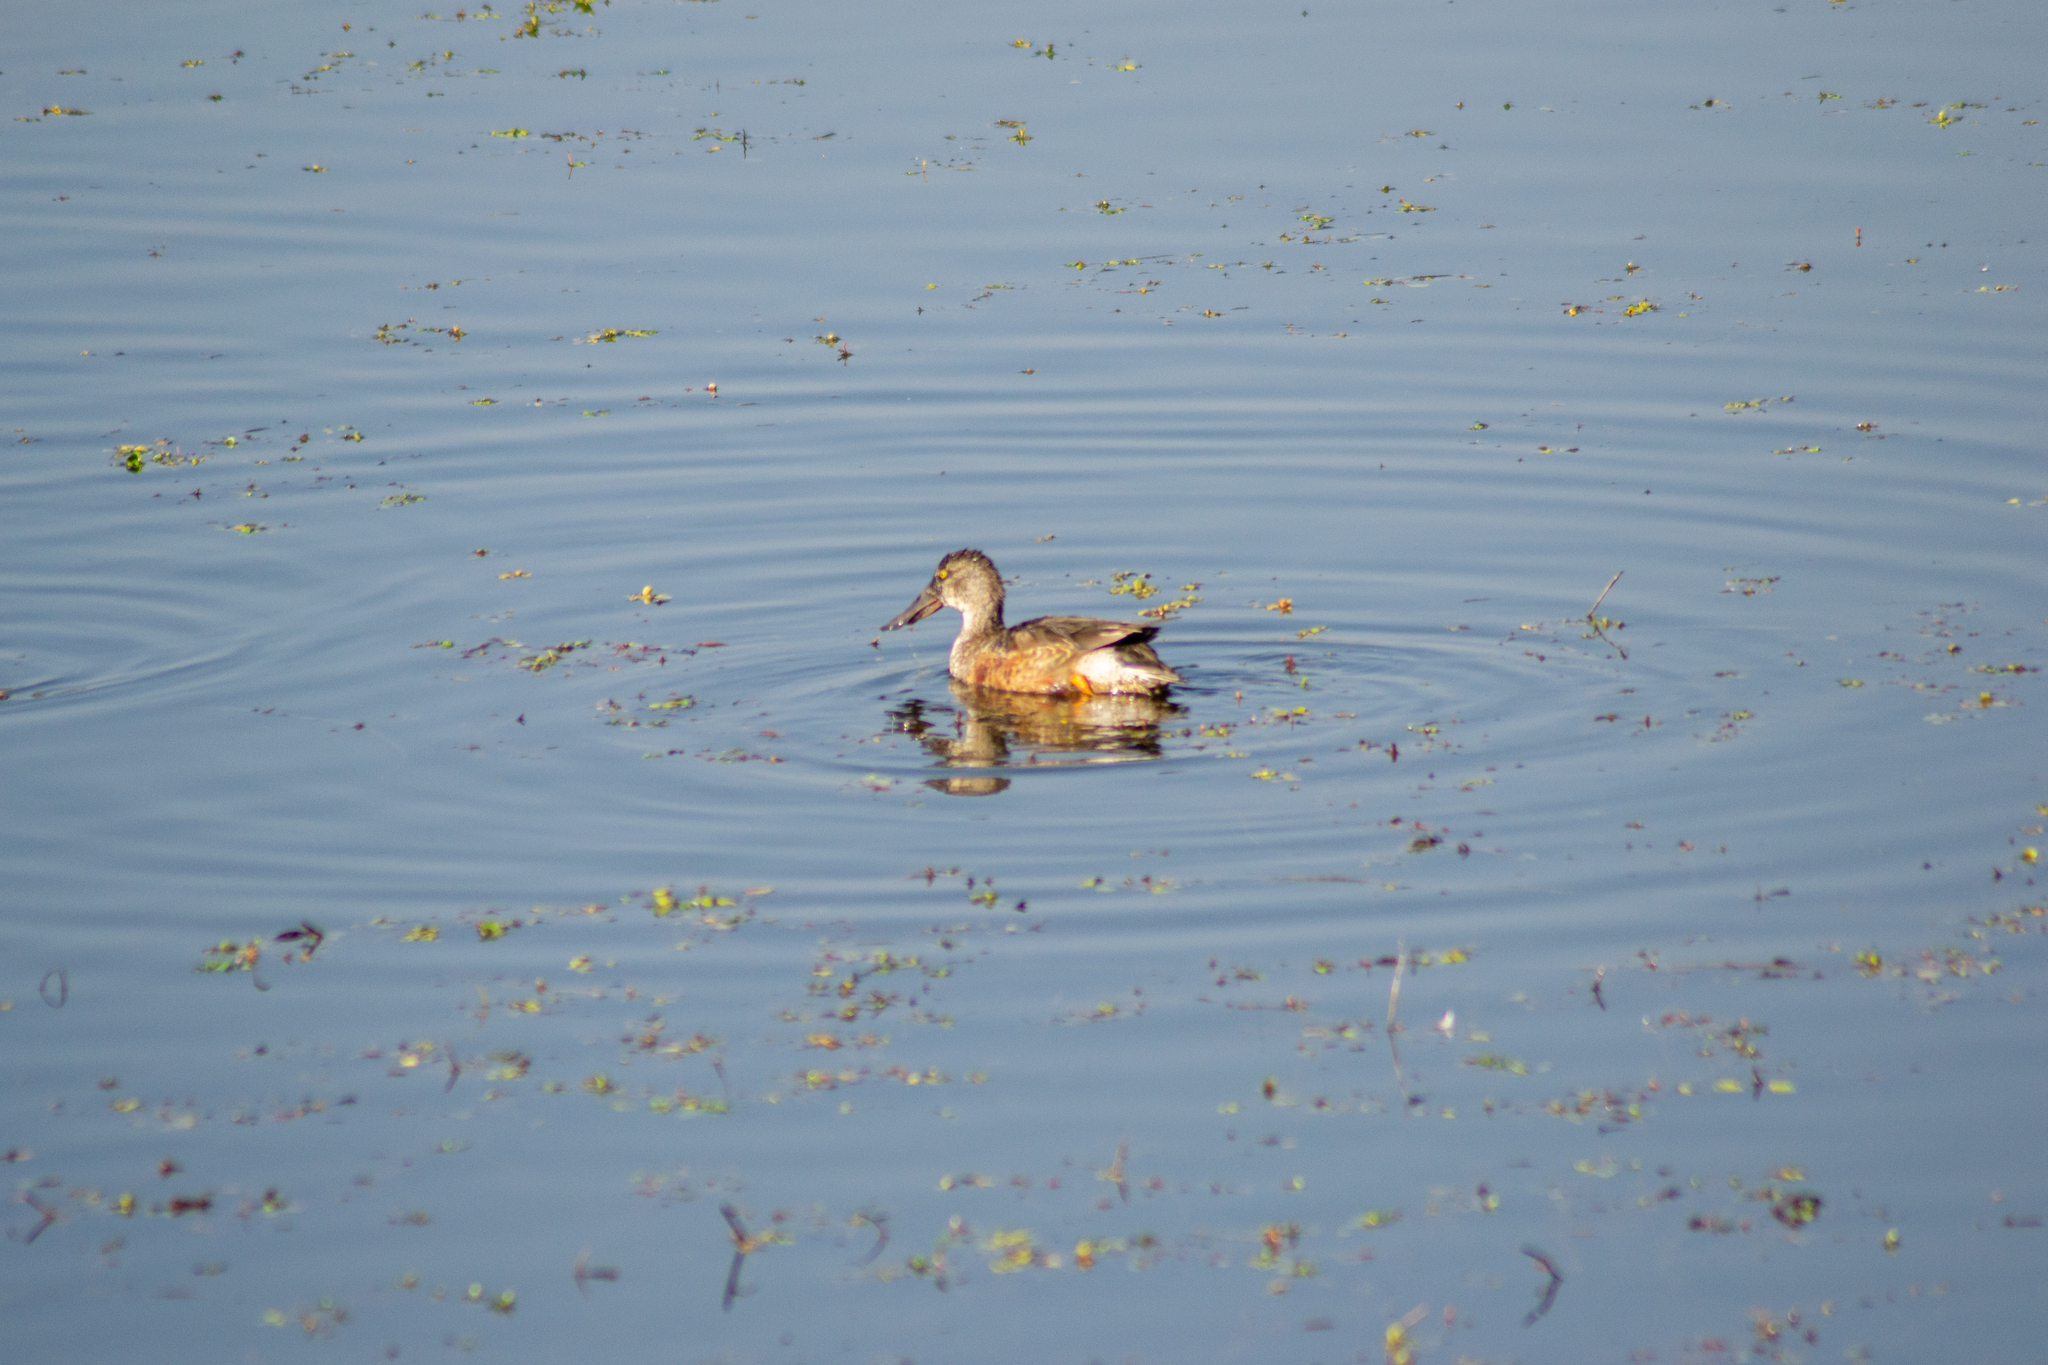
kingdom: Animalia
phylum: Chordata
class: Aves
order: Anseriformes
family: Anatidae
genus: Spatula
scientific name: Spatula clypeata
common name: Northern shoveler
